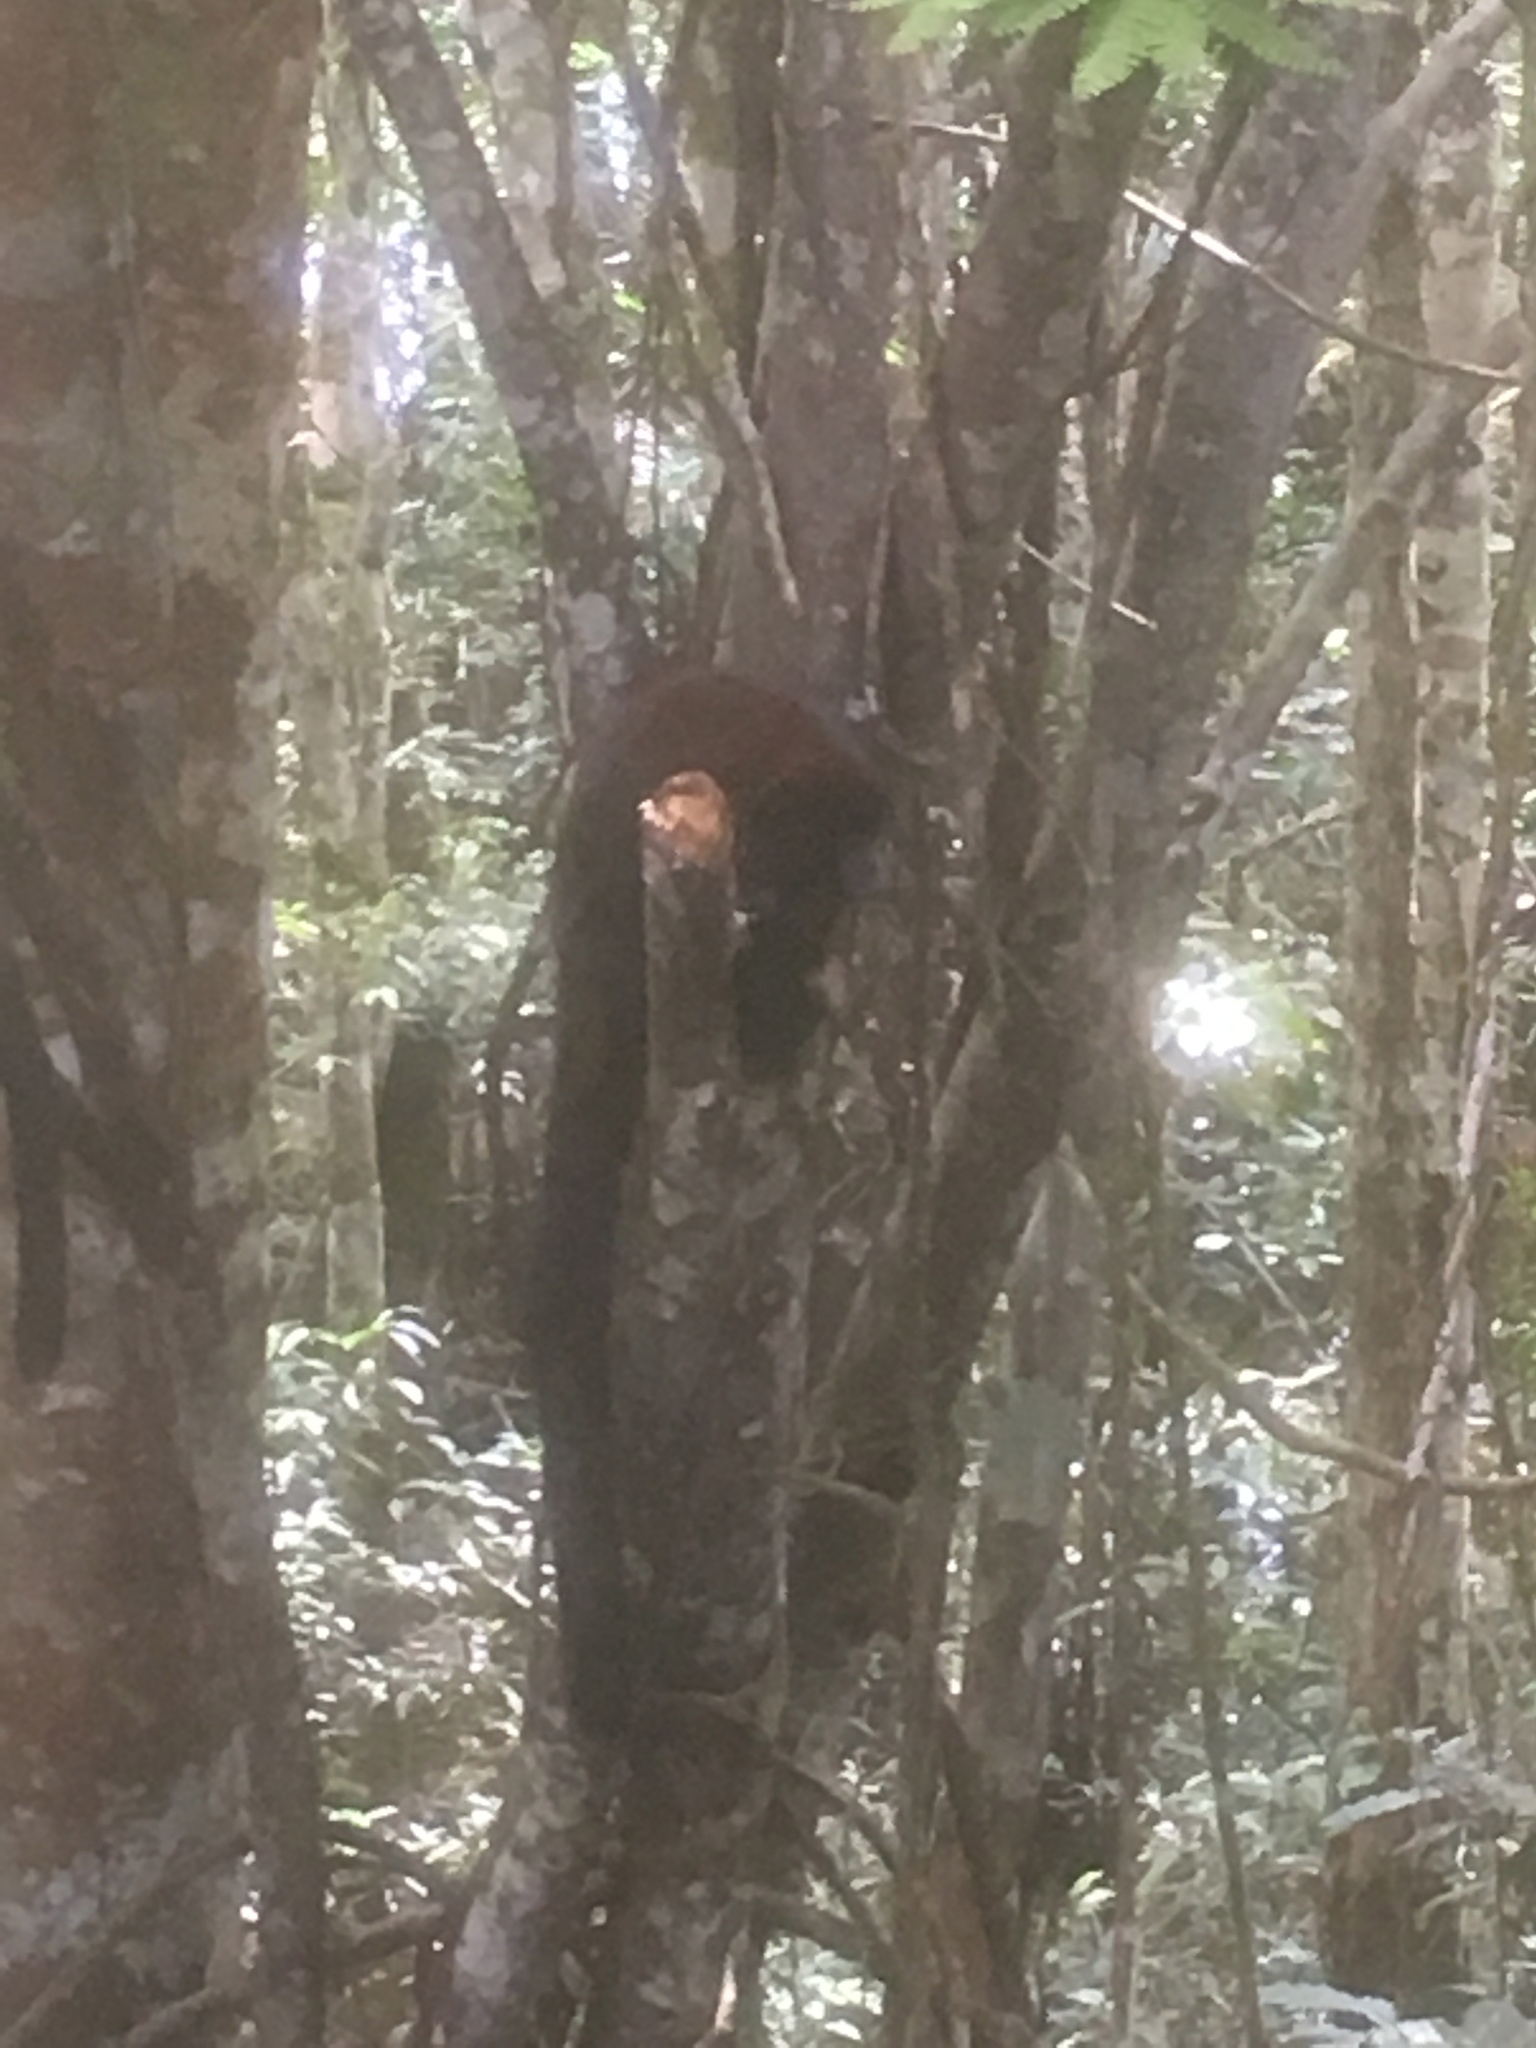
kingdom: Animalia
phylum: Chordata
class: Mammalia
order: Primates
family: Pitheciidae
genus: Cheracebus
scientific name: Cheracebus lucifer
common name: Yellow-handed titi
